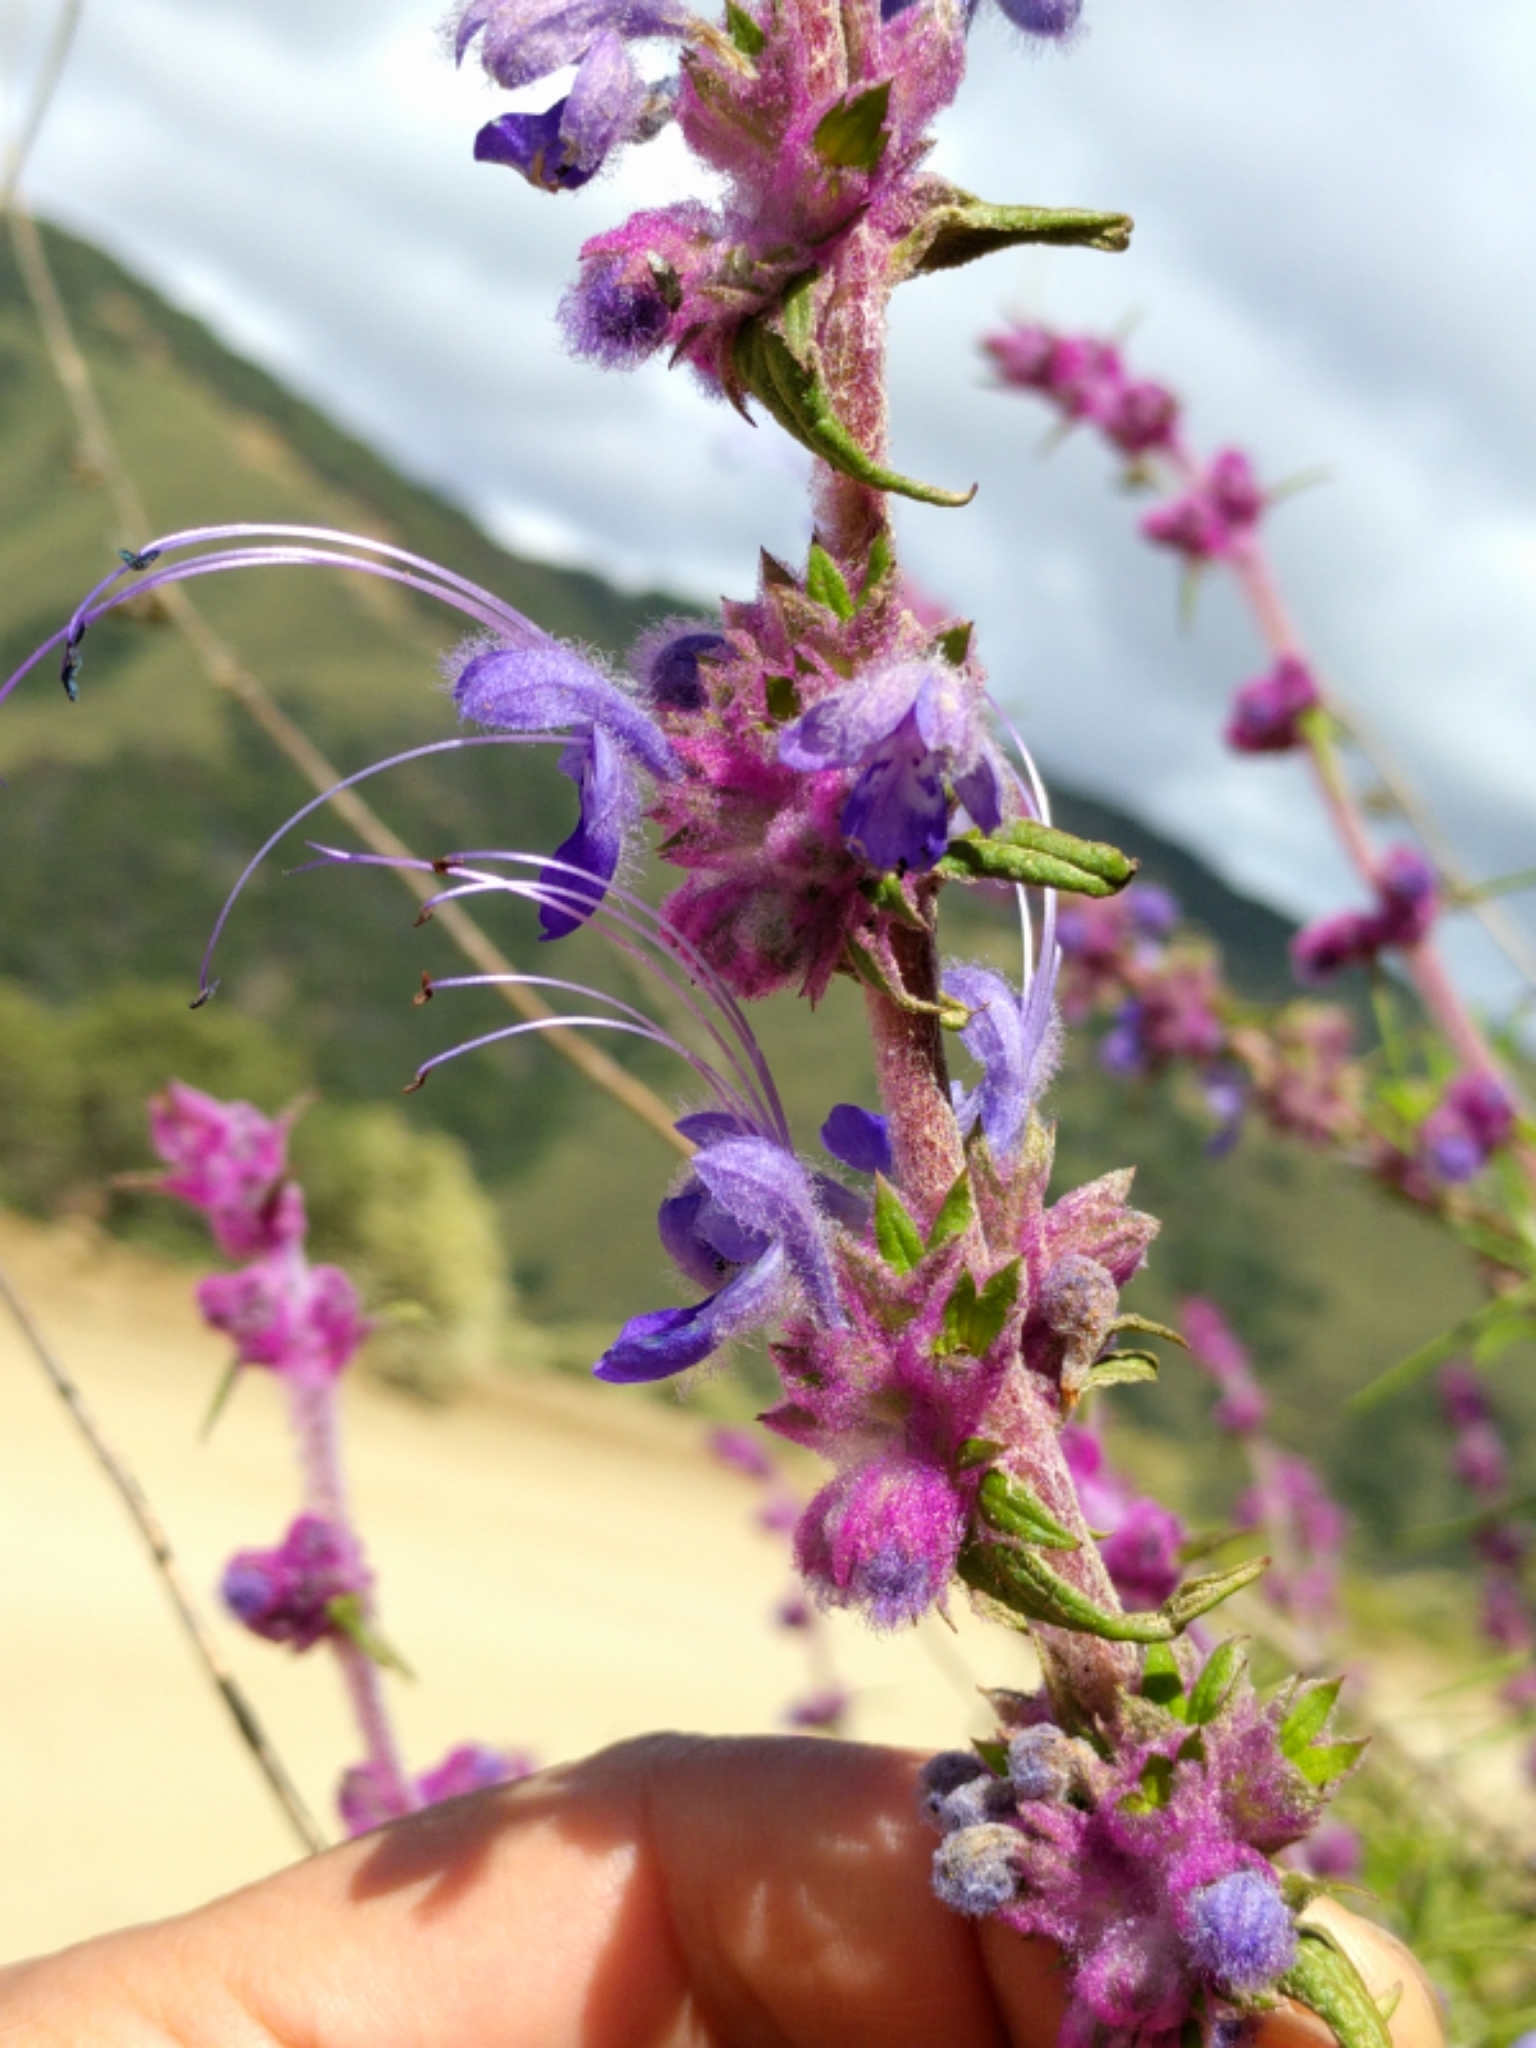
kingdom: Plantae
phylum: Tracheophyta
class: Magnoliopsida
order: Lamiales
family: Lamiaceae
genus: Trichostema
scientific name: Trichostema lanatum
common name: Woolly bluecurls
